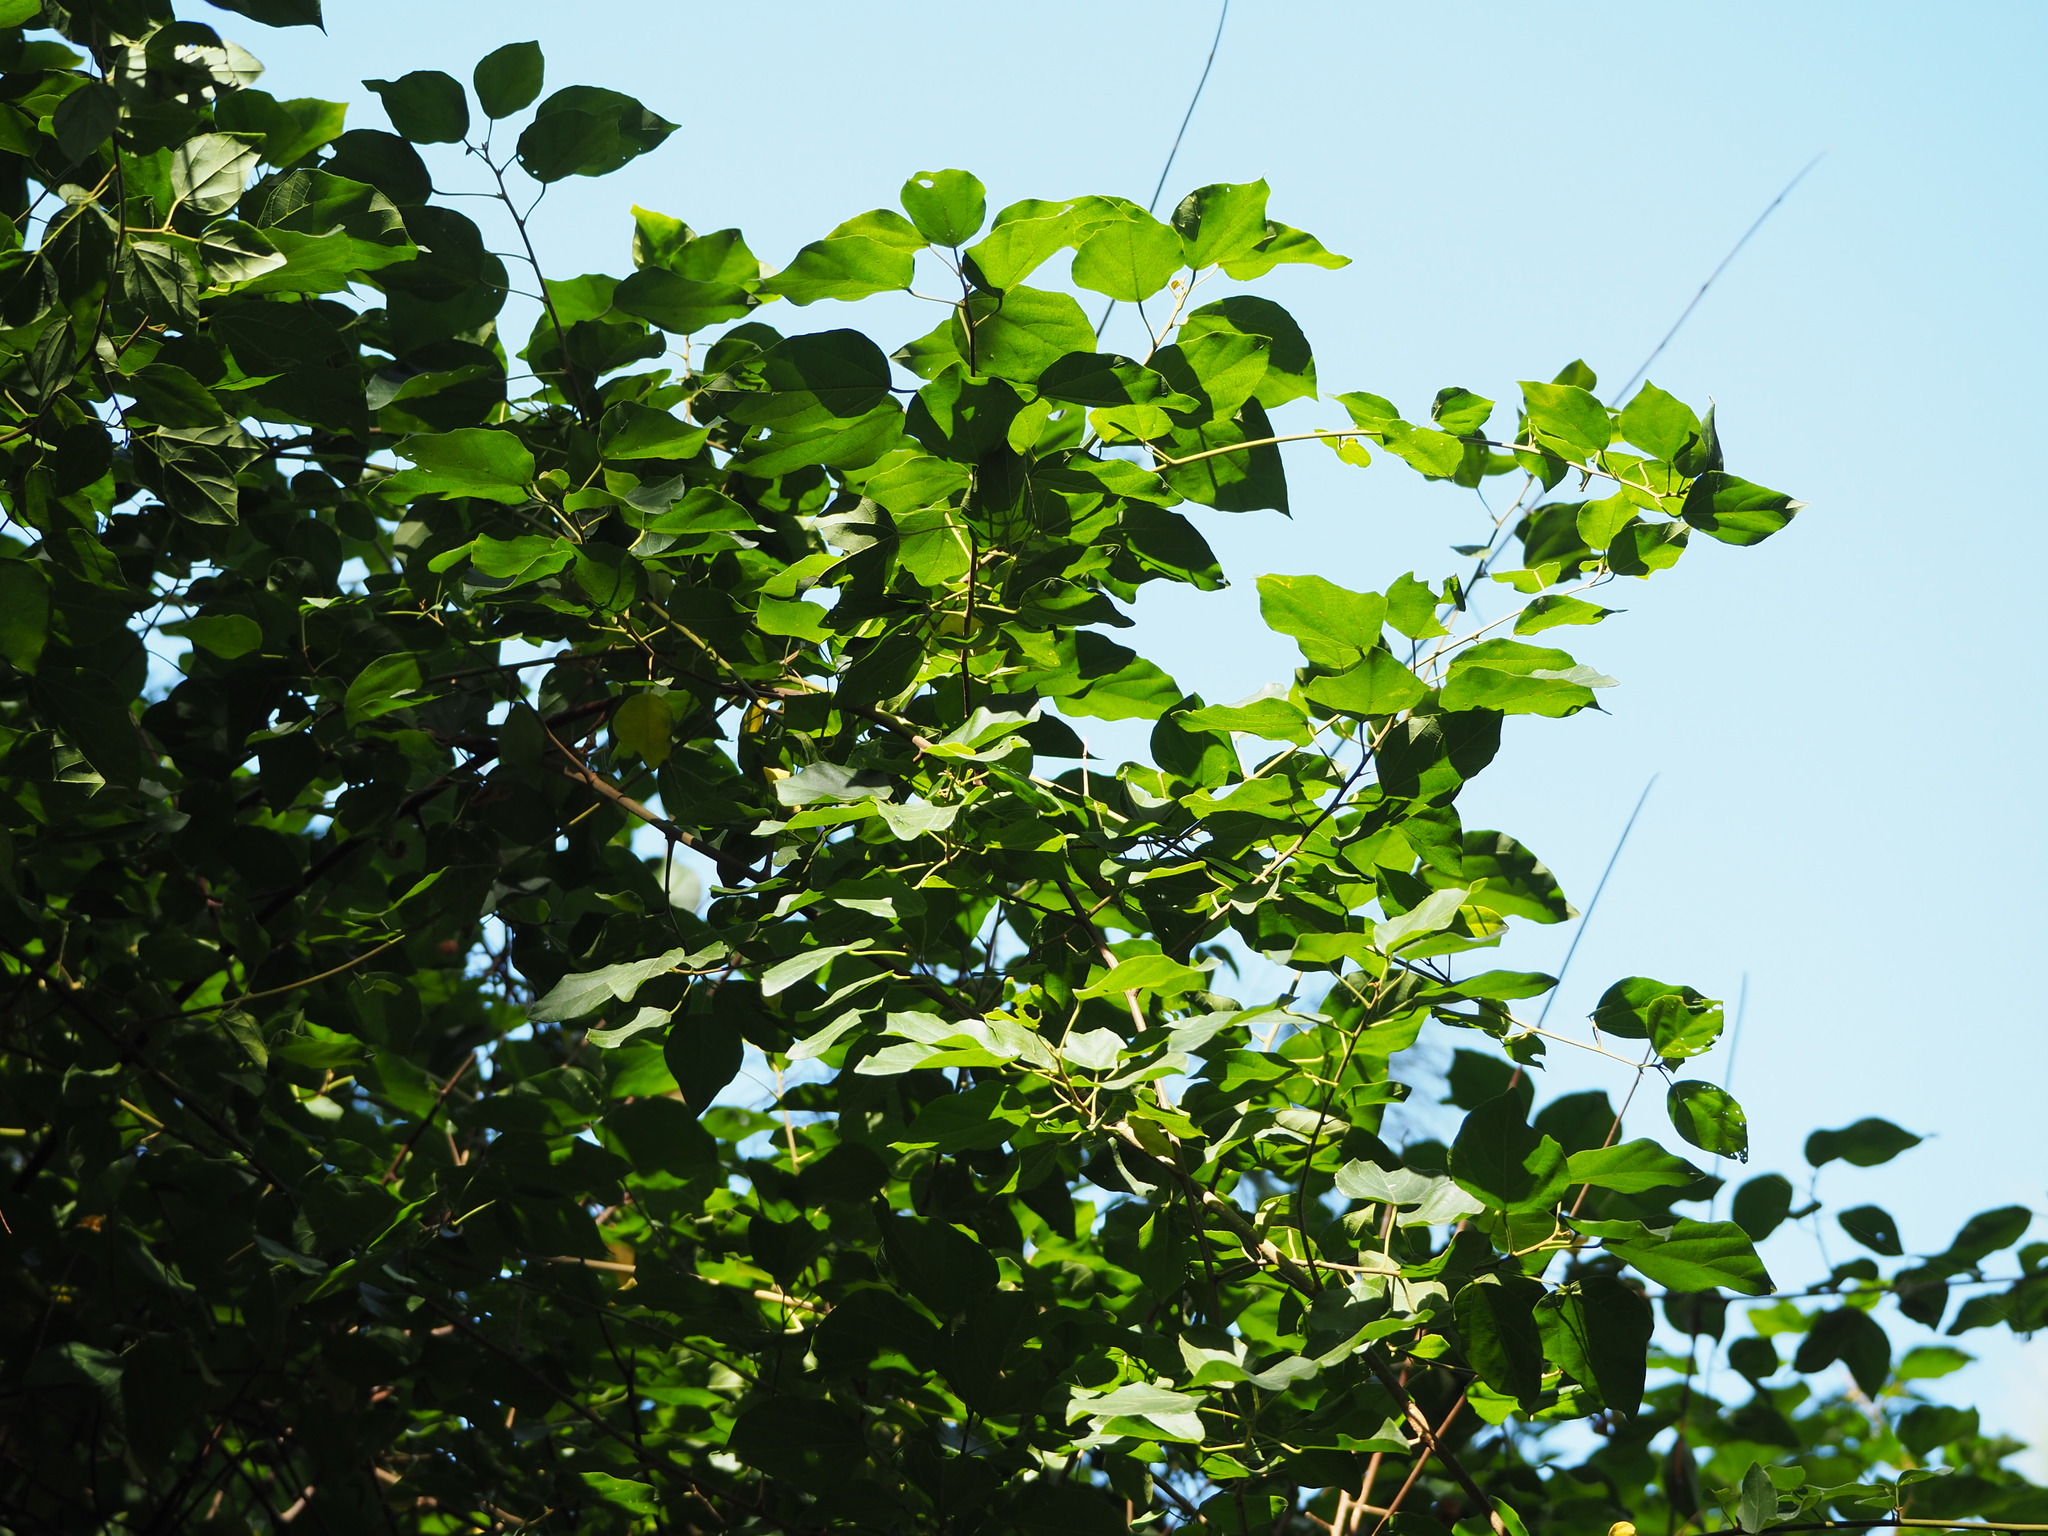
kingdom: Plantae
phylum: Tracheophyta
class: Magnoliopsida
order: Malpighiales
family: Euphorbiaceae
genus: Mallotus
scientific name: Mallotus repandus
